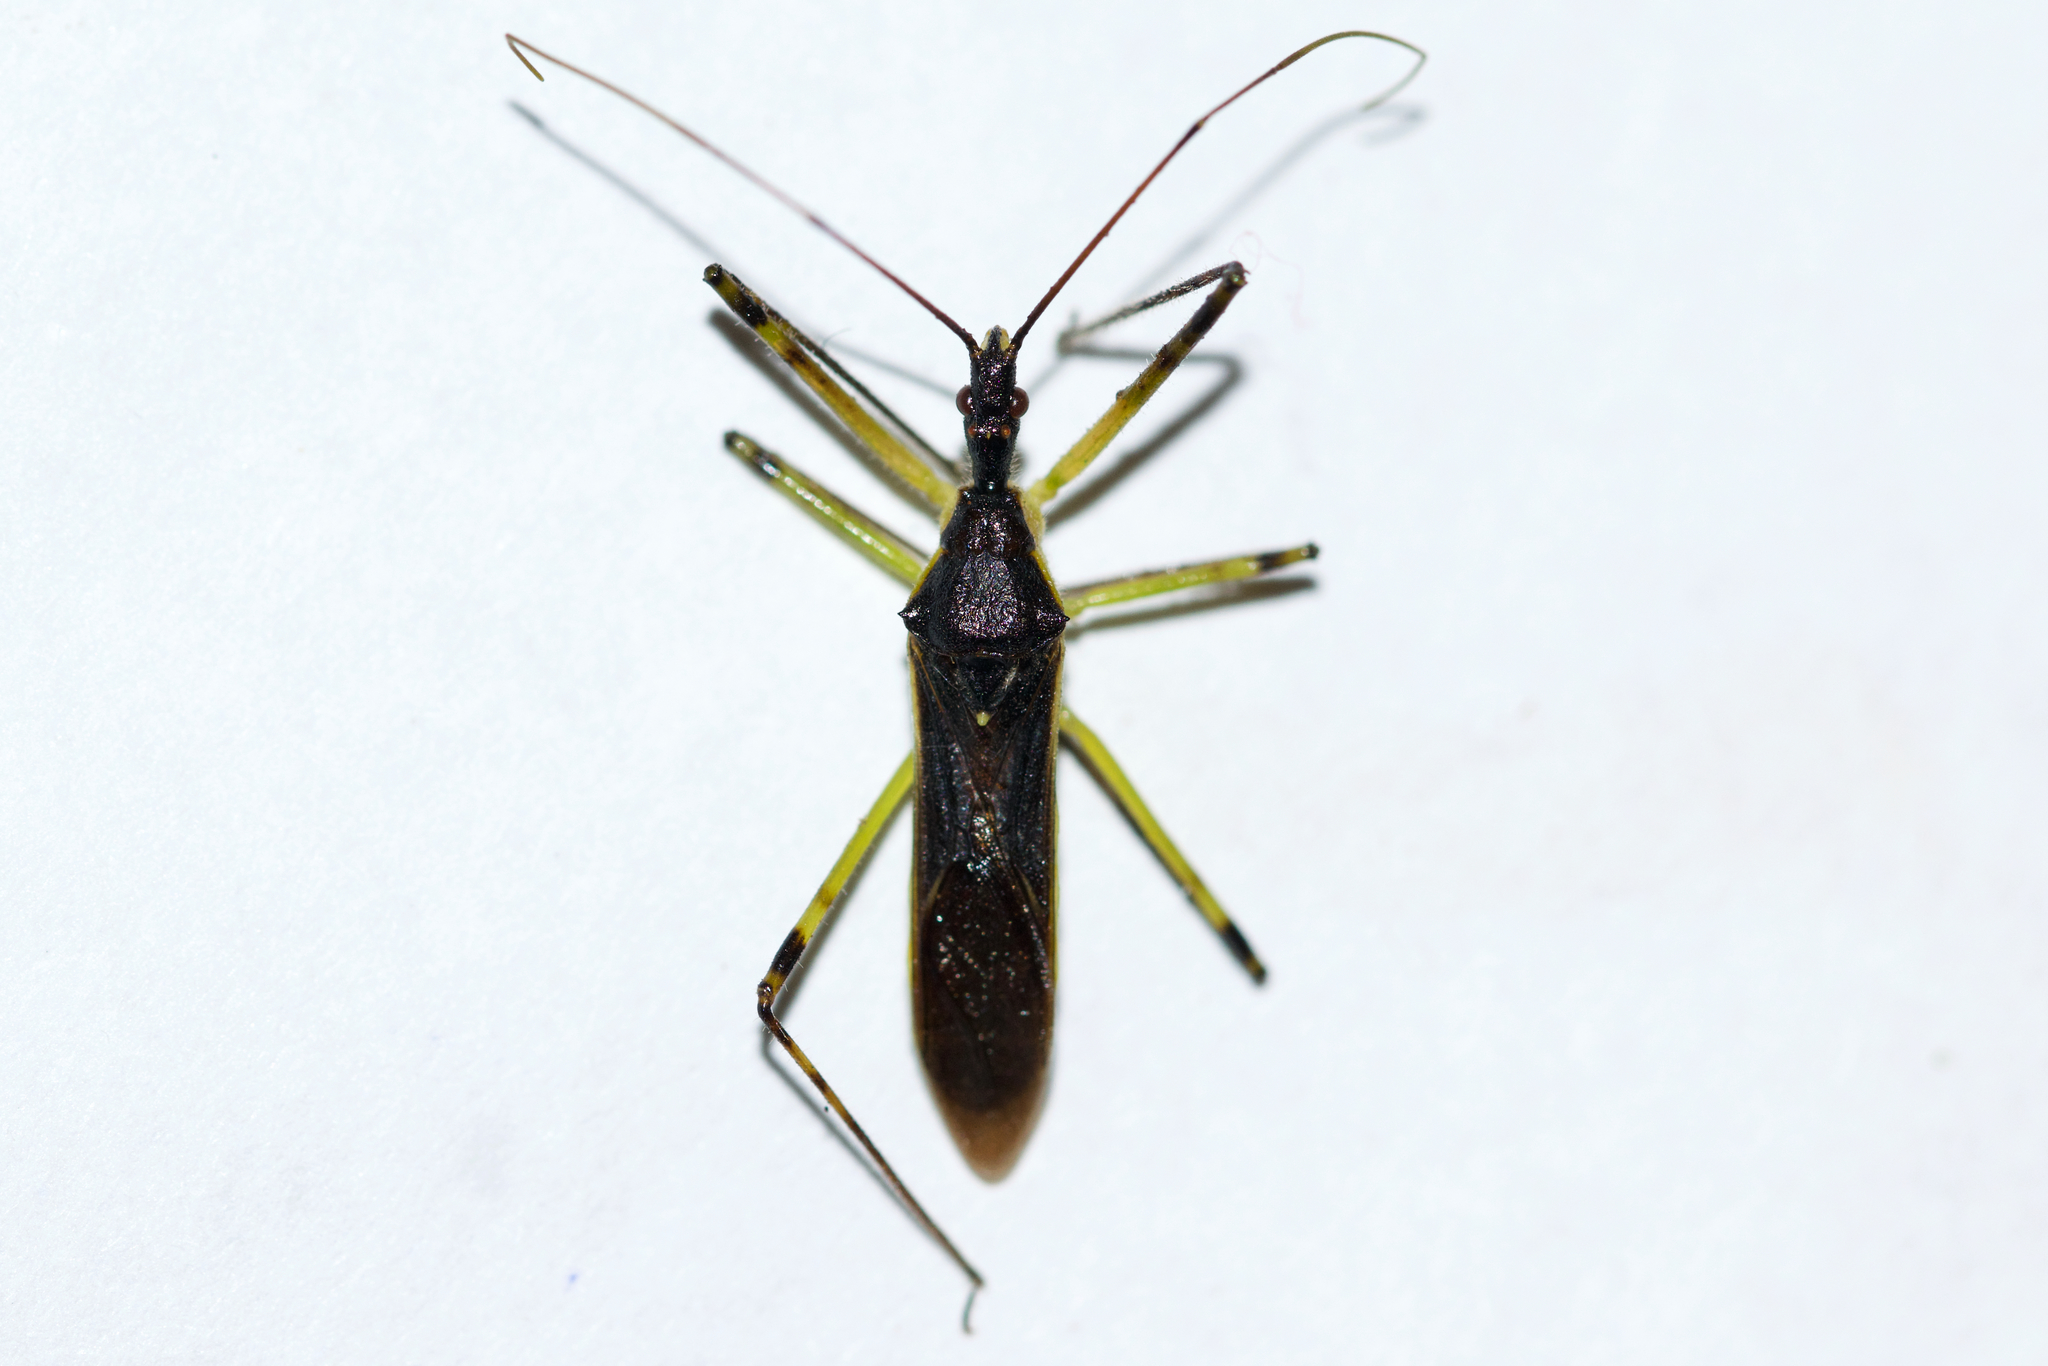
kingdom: Animalia
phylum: Arthropoda
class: Insecta
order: Hemiptera
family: Reduviidae
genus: Zelus
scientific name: Zelus luridus
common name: Pale green assassin bug
